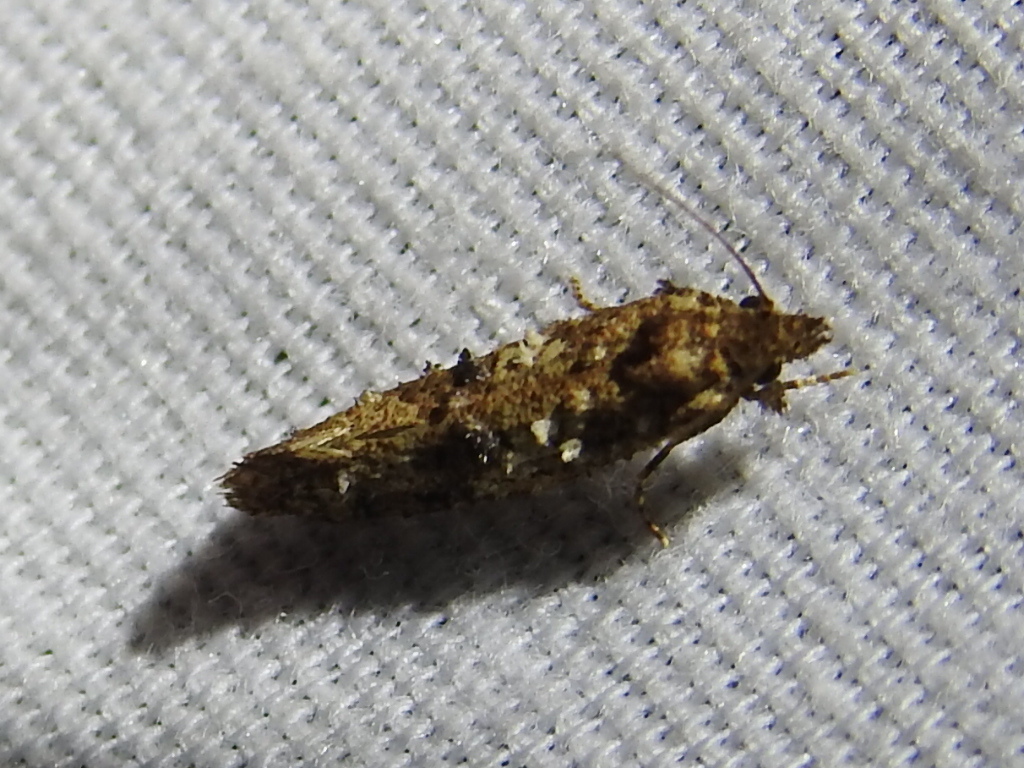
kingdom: Animalia
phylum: Arthropoda
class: Insecta
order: Lepidoptera
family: Tineidae
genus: Acrolophus
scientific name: Acrolophus cressoni
